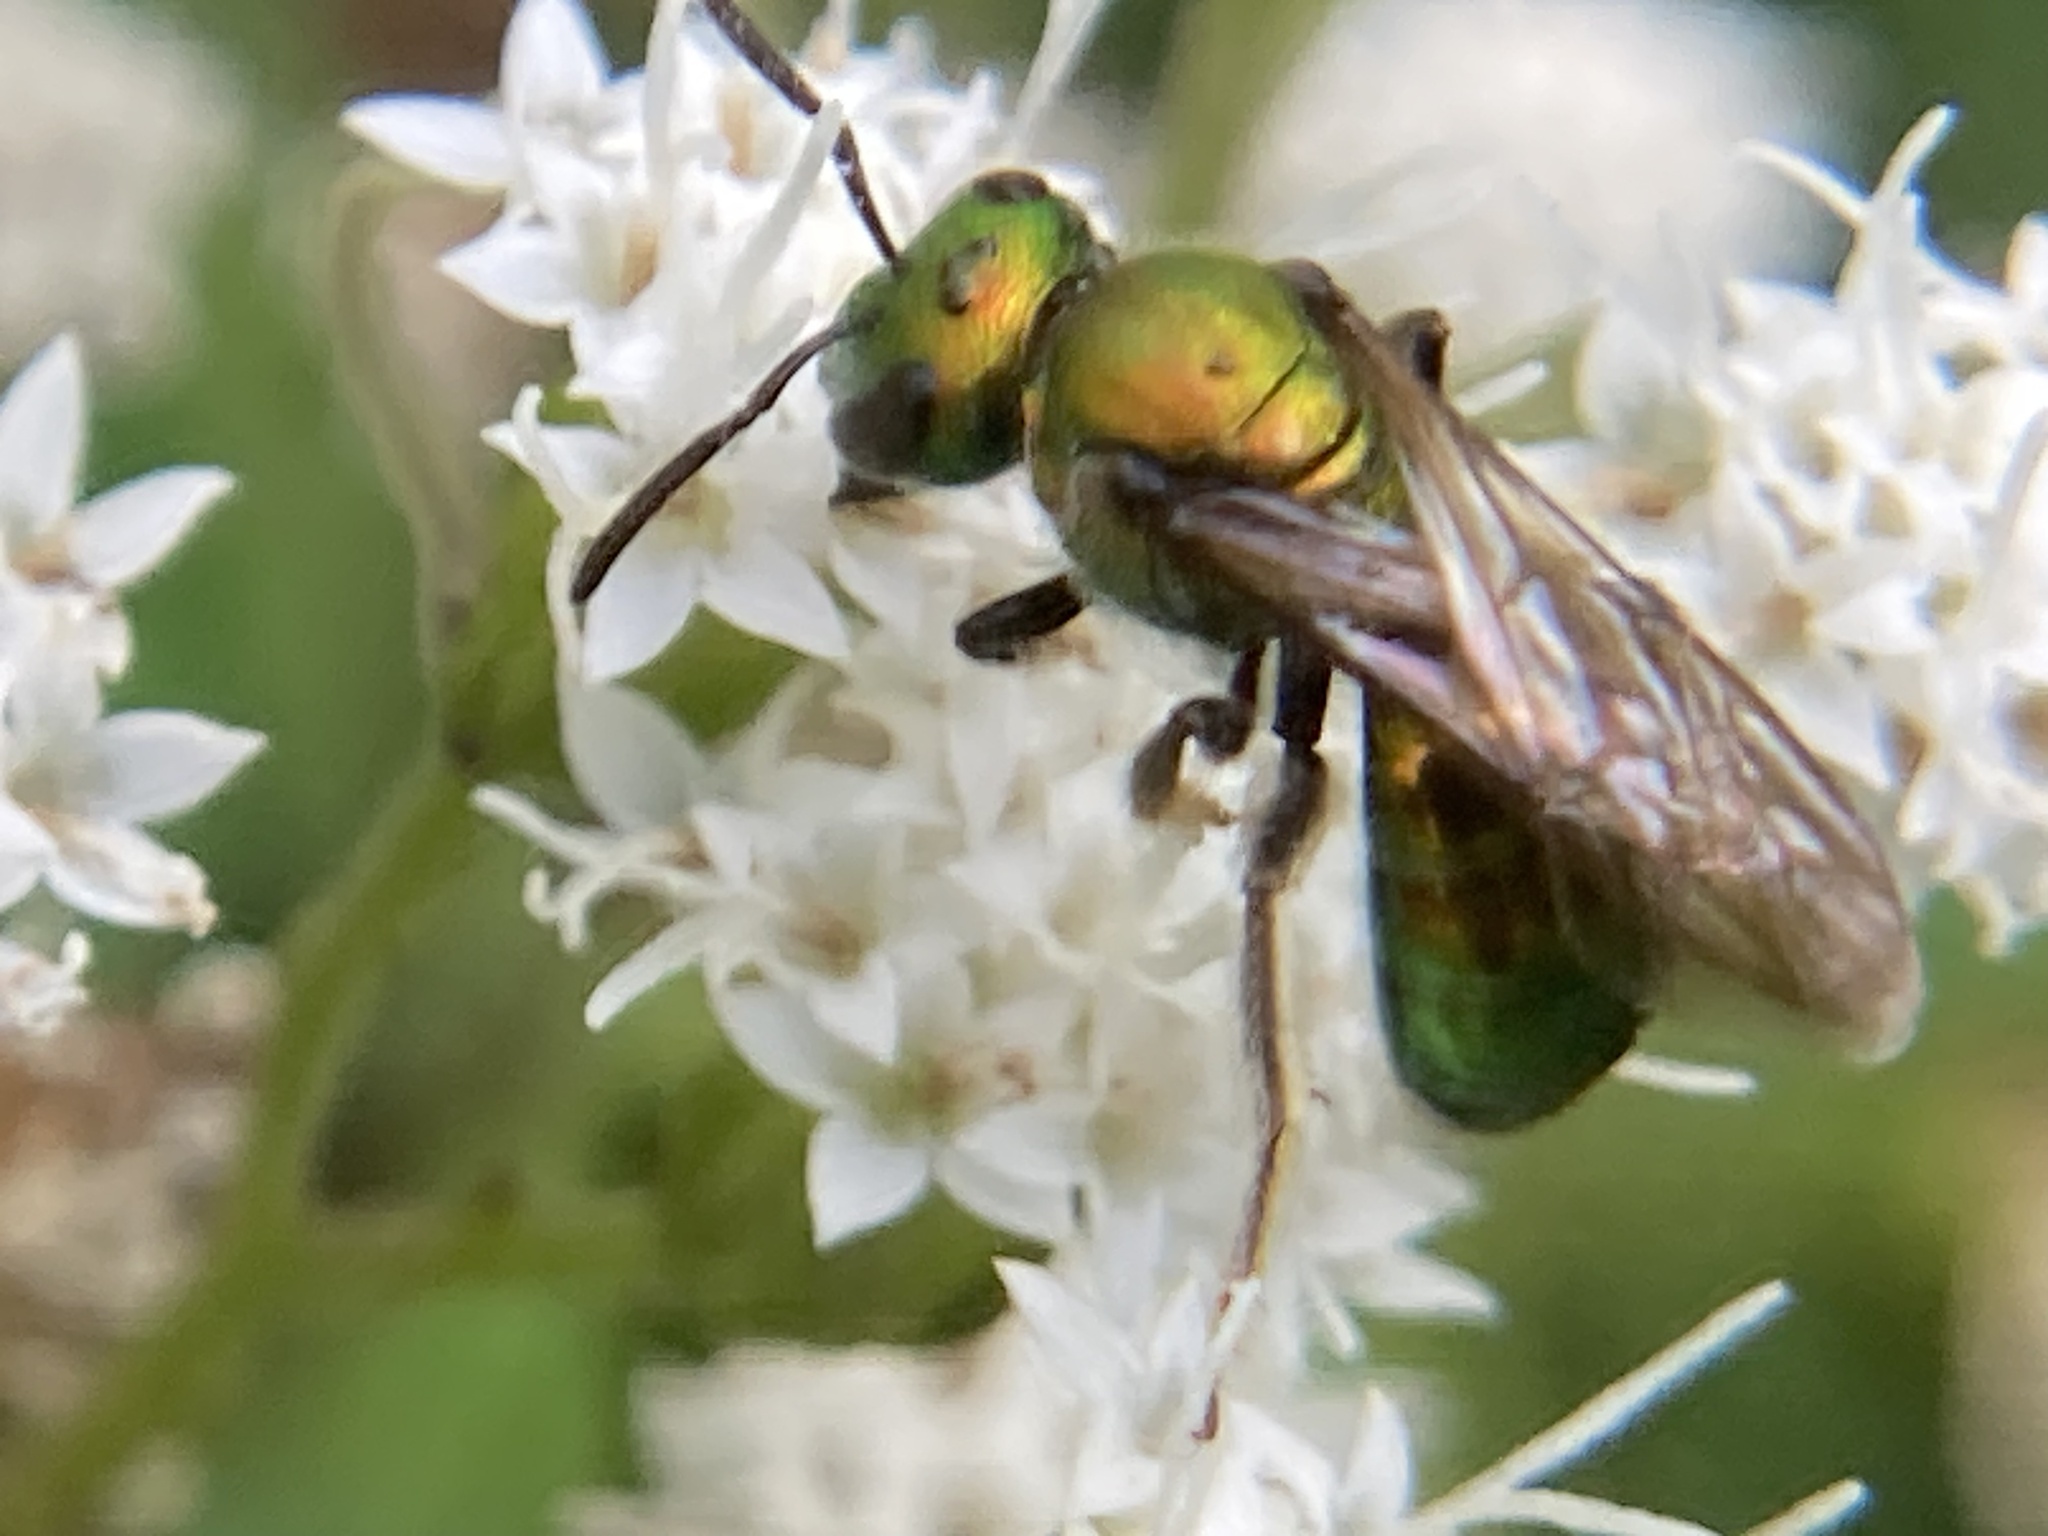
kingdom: Animalia
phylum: Arthropoda
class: Insecta
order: Hymenoptera
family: Halictidae
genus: Augochlora
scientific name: Augochlora pura
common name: Pure green sweat bee
